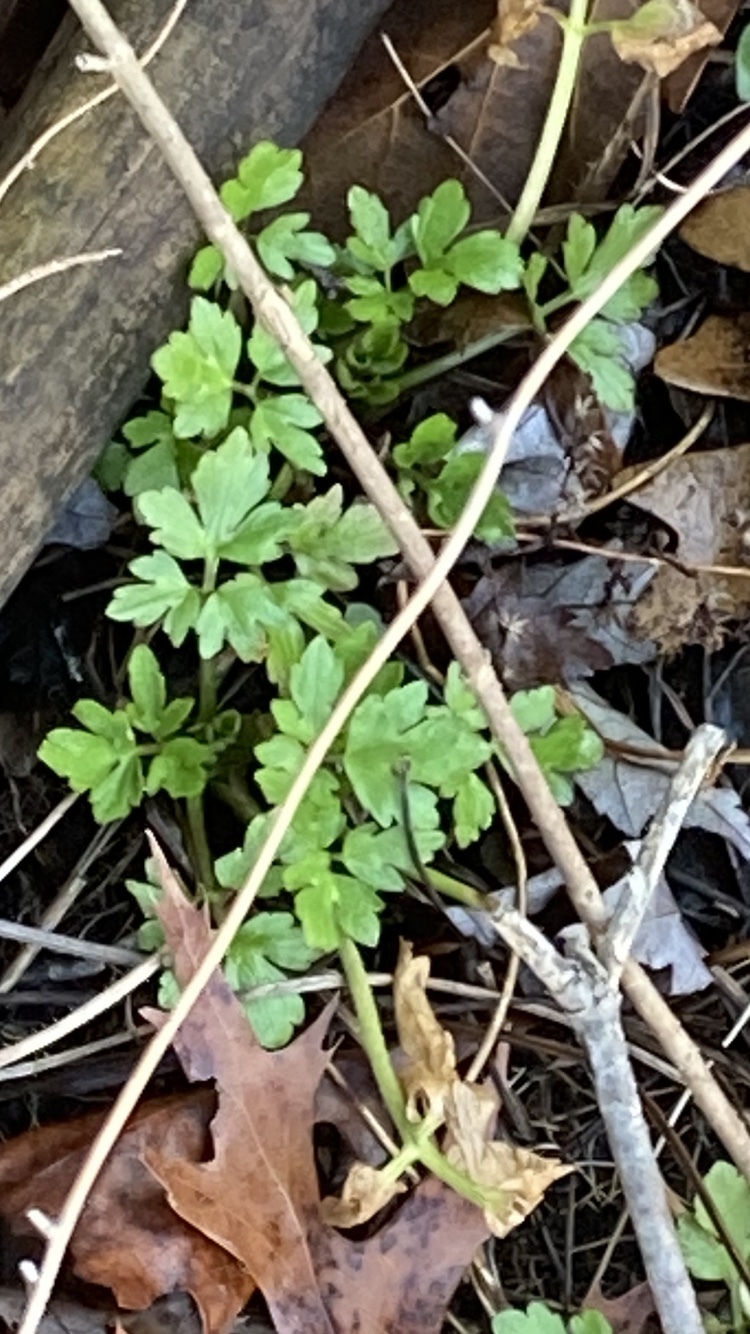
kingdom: Plantae
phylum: Tracheophyta
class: Magnoliopsida
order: Ranunculales
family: Ranunculaceae
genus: Ranunculus
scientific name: Ranunculus repens
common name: Creeping buttercup
